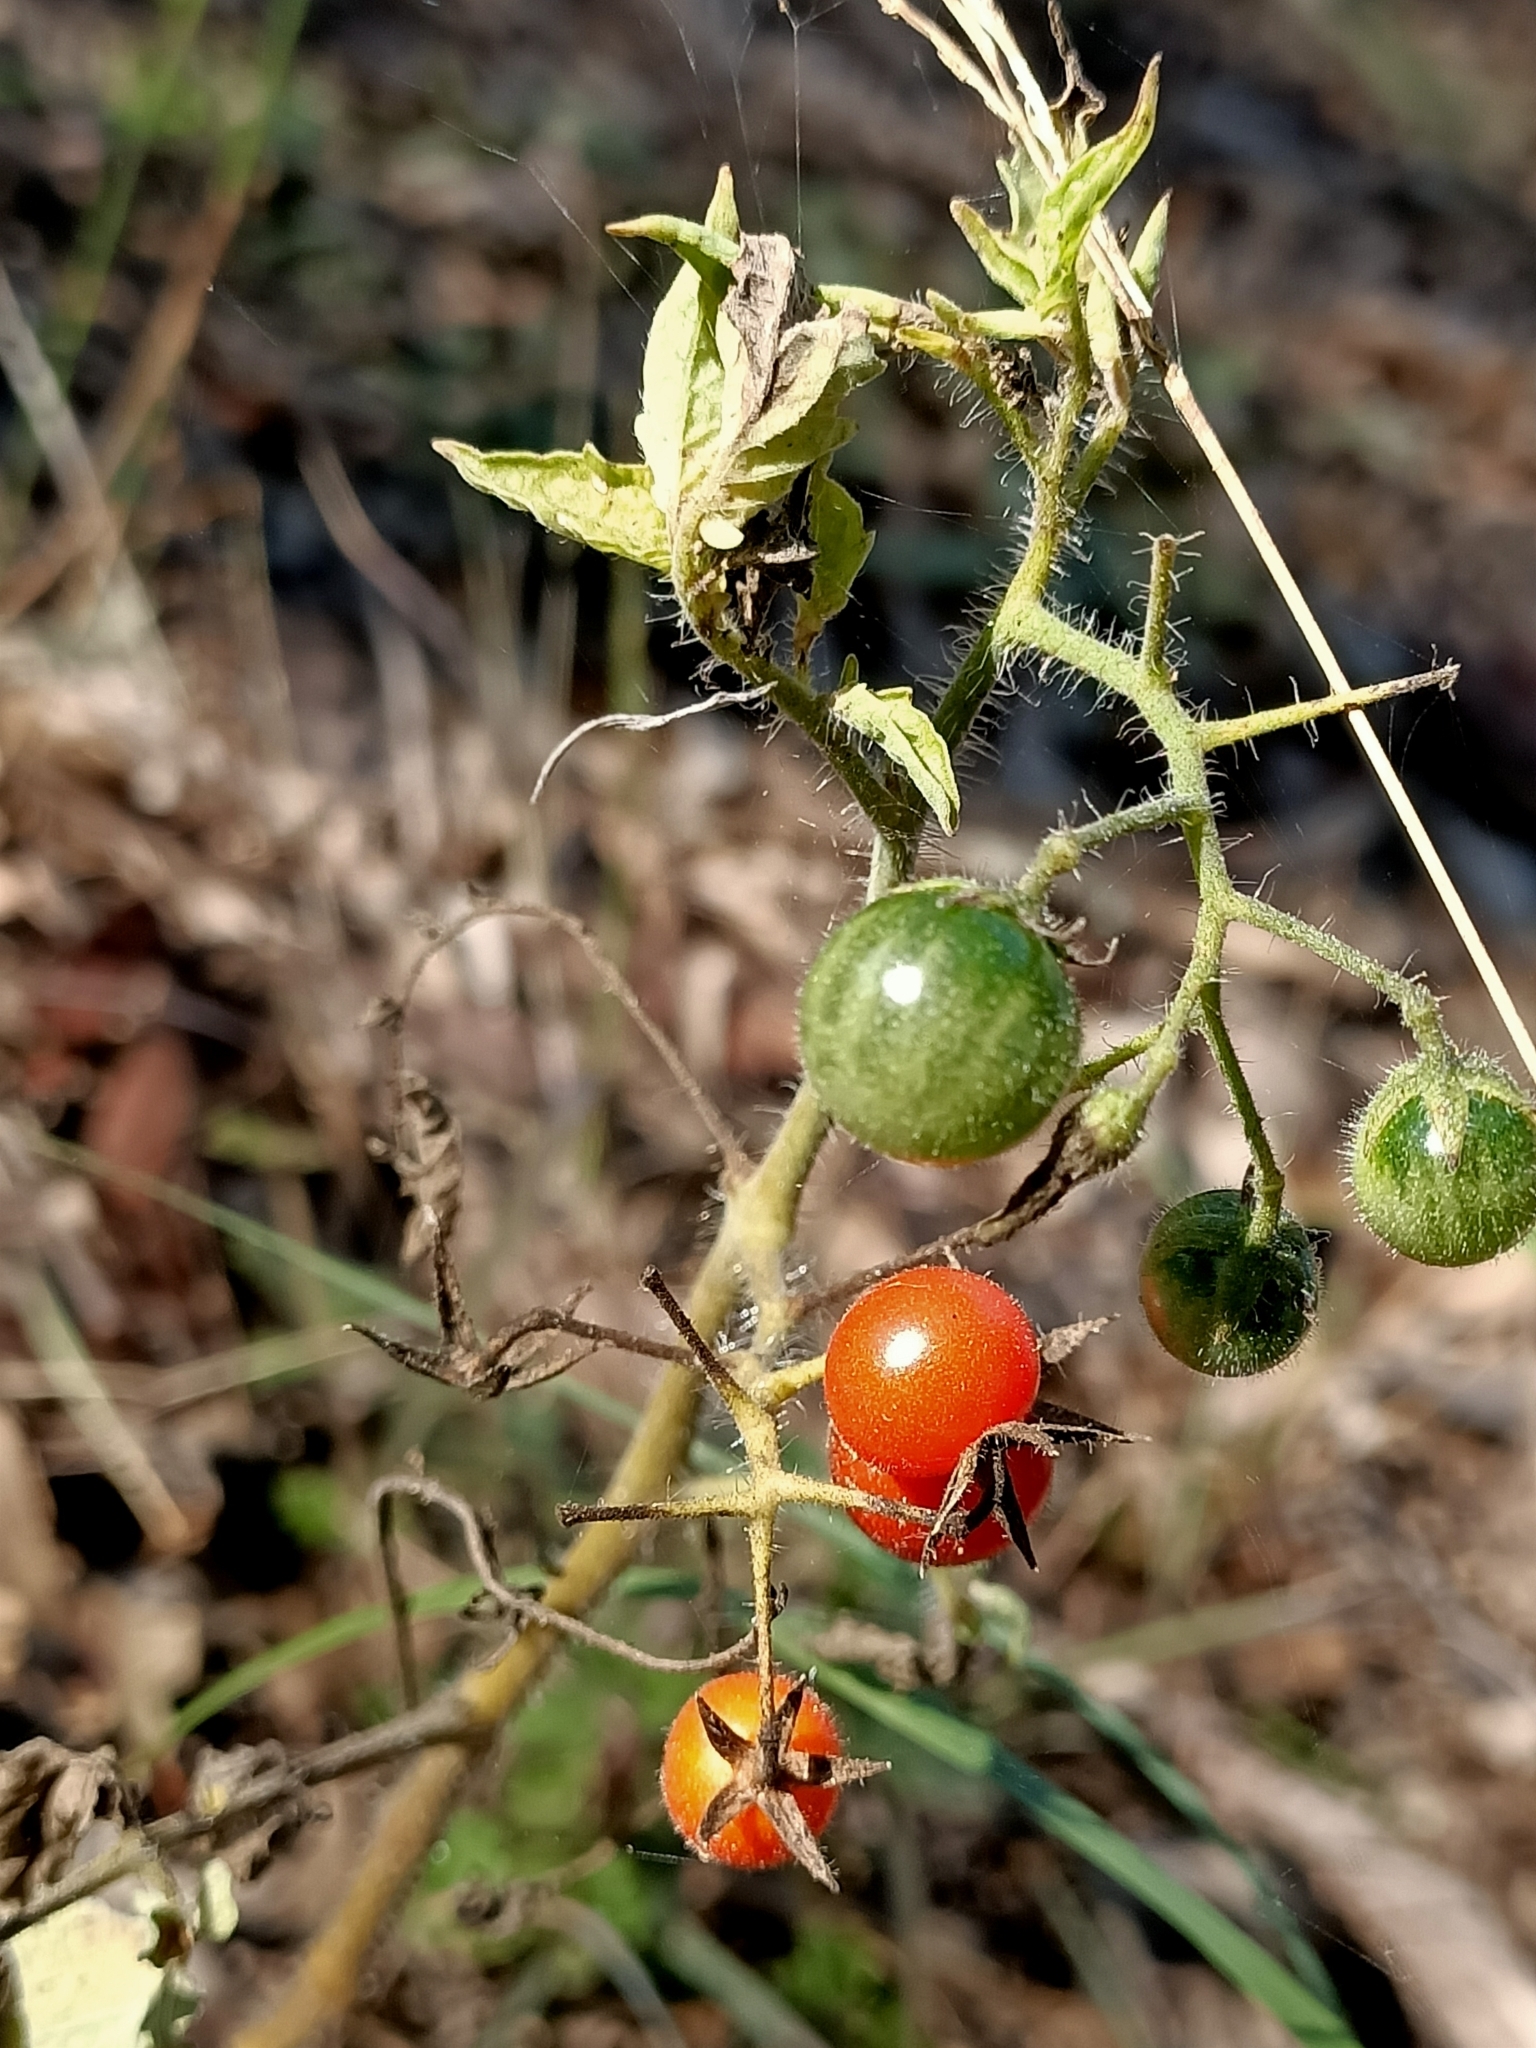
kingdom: Plantae
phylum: Tracheophyta
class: Magnoliopsida
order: Solanales
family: Solanaceae
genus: Solanum
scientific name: Solanum lycopersicum
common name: Garden tomato
